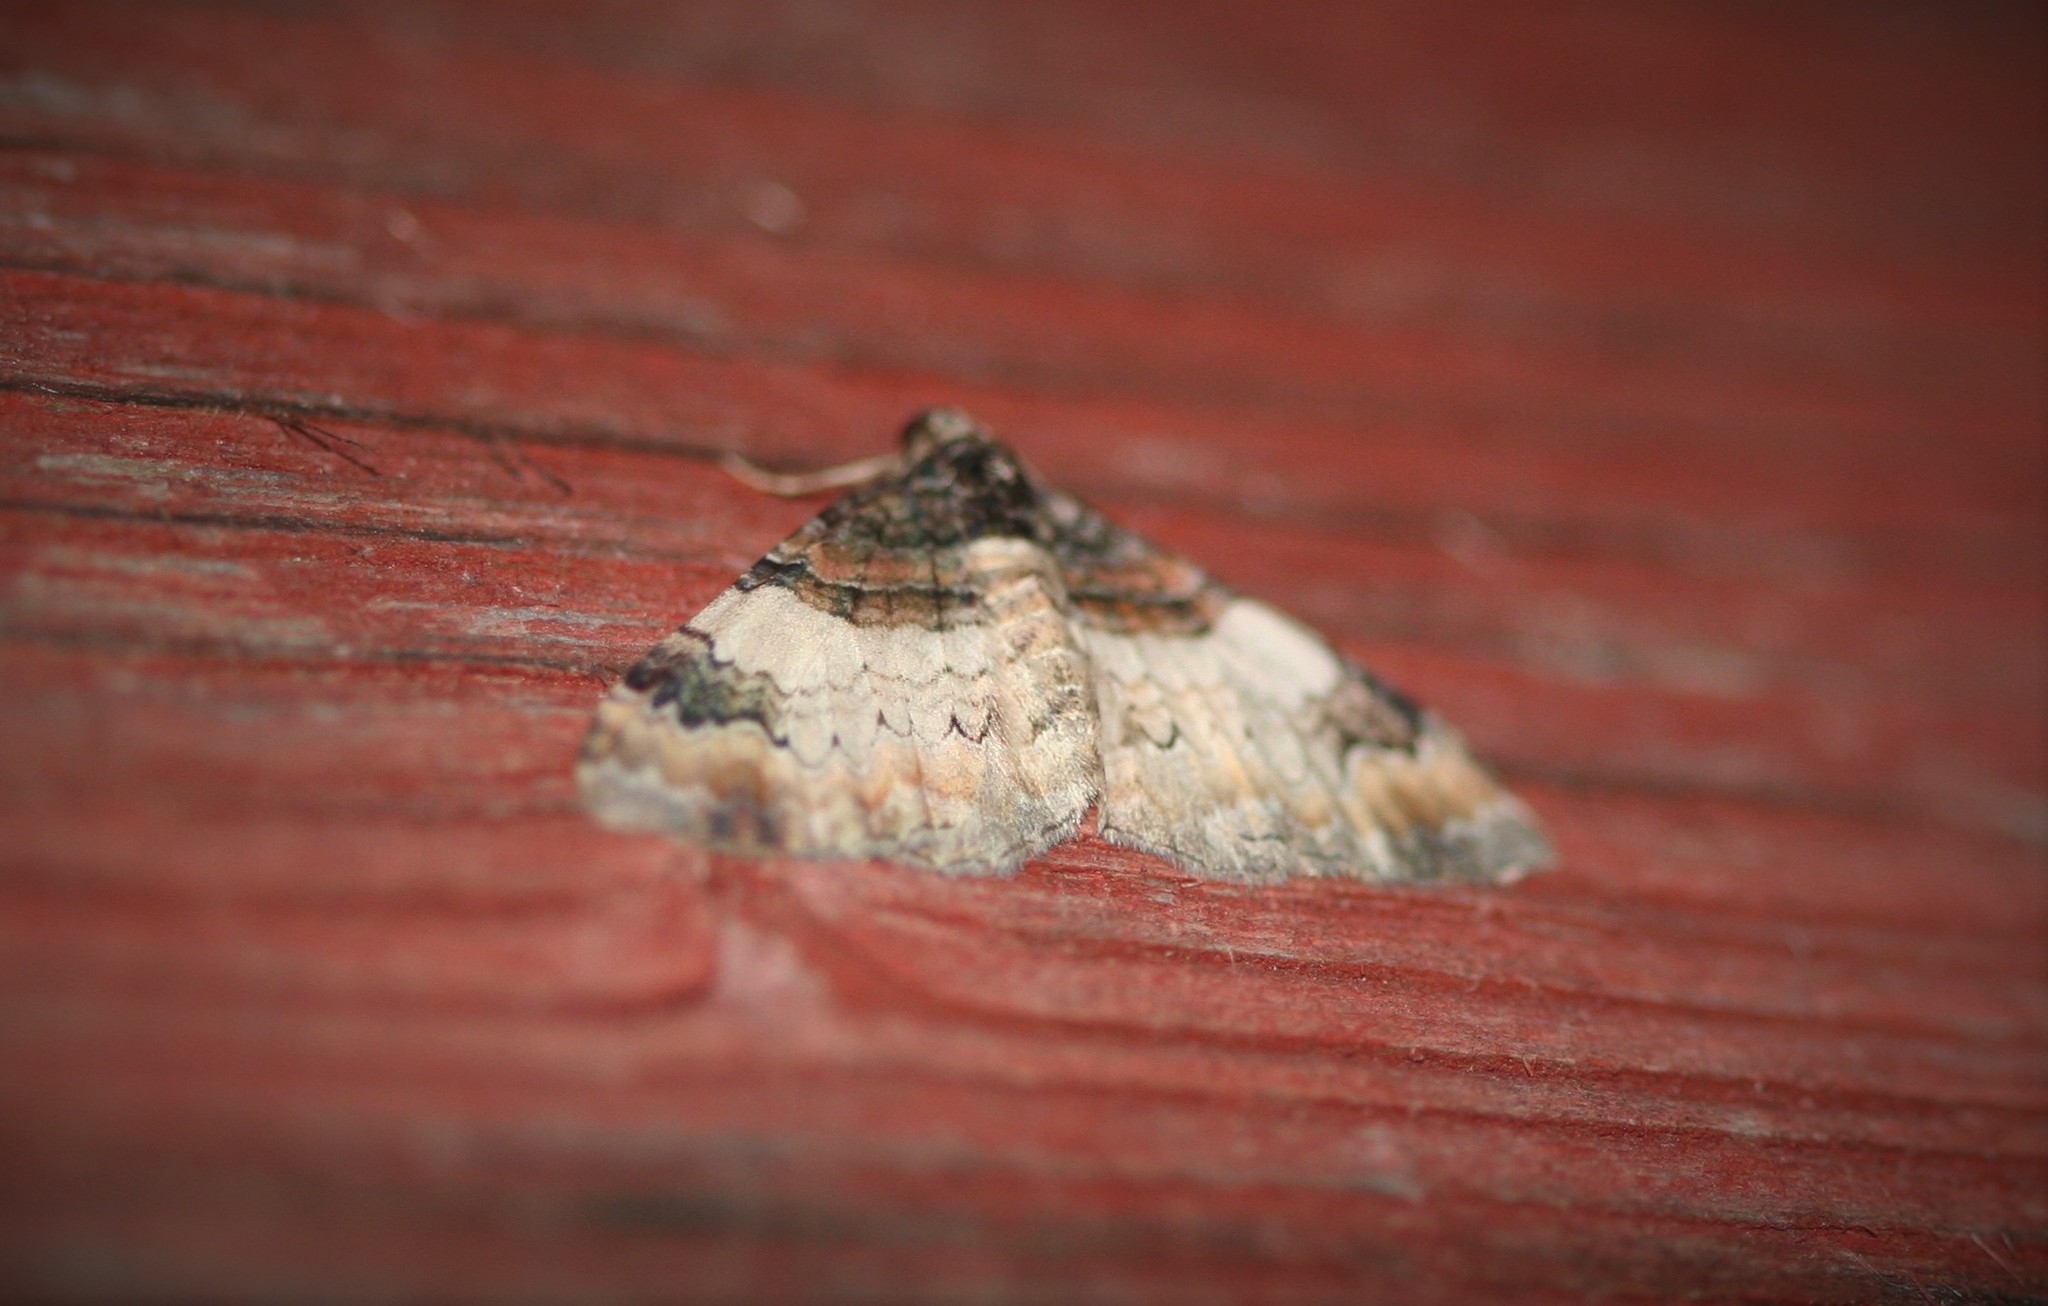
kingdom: Animalia
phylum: Arthropoda
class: Insecta
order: Lepidoptera
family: Geometridae
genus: Catarhoe
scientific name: Catarhoe cuculata
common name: Royal mantle
